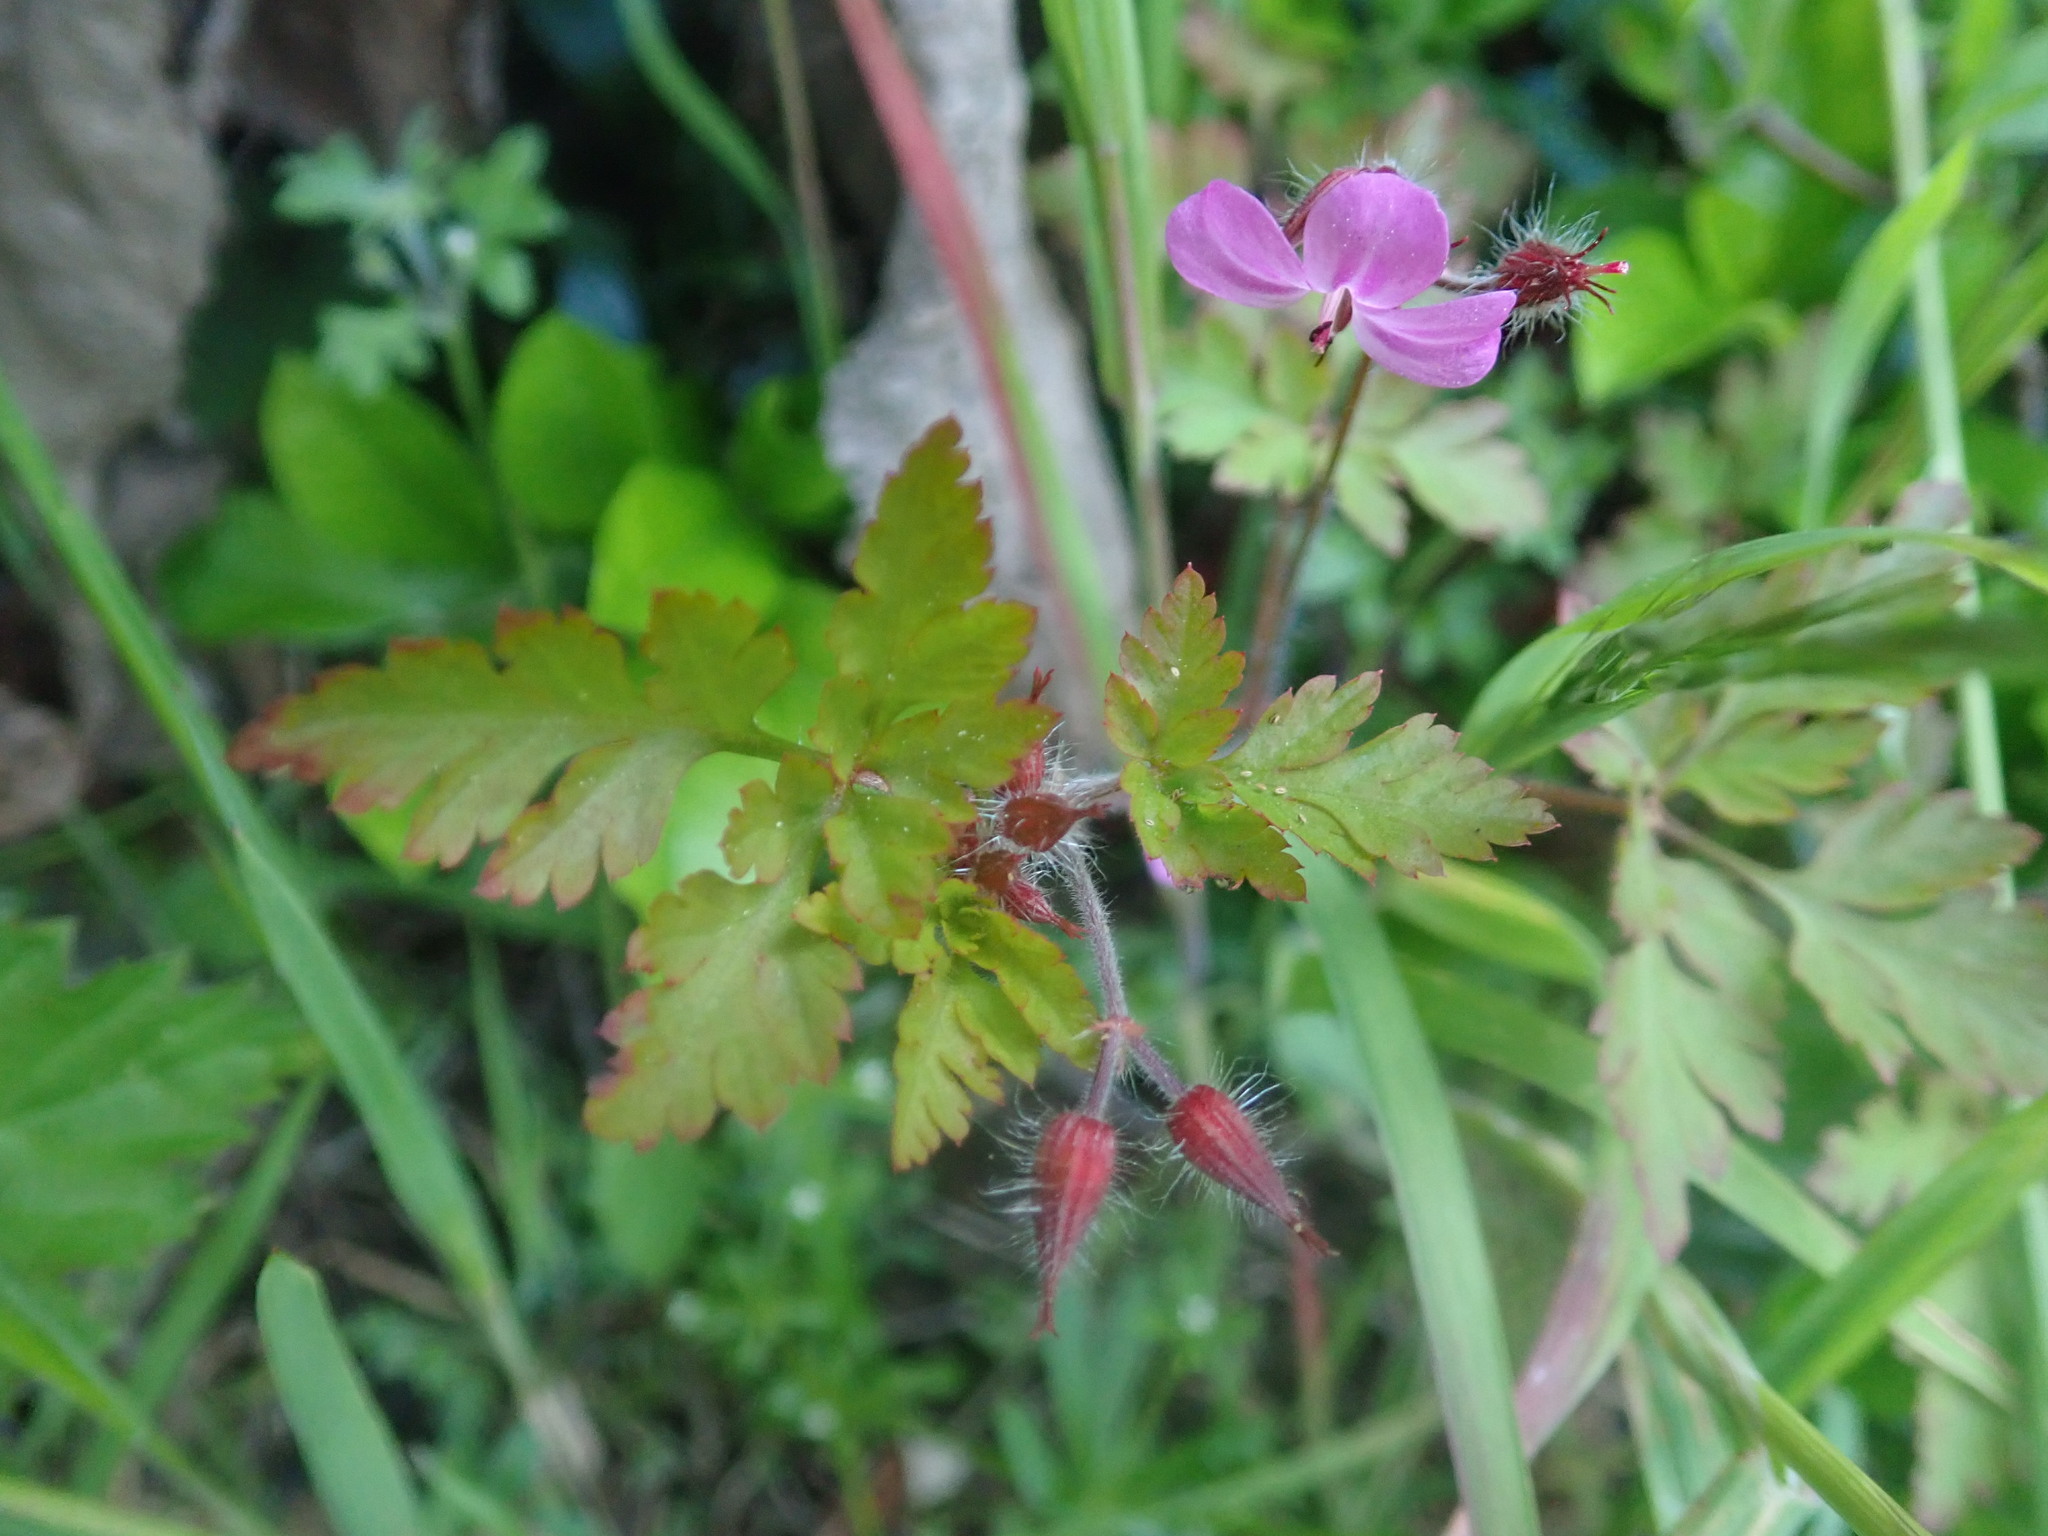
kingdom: Plantae
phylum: Tracheophyta
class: Magnoliopsida
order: Geraniales
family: Geraniaceae
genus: Geranium
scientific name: Geranium robertianum
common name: Herb-robert
